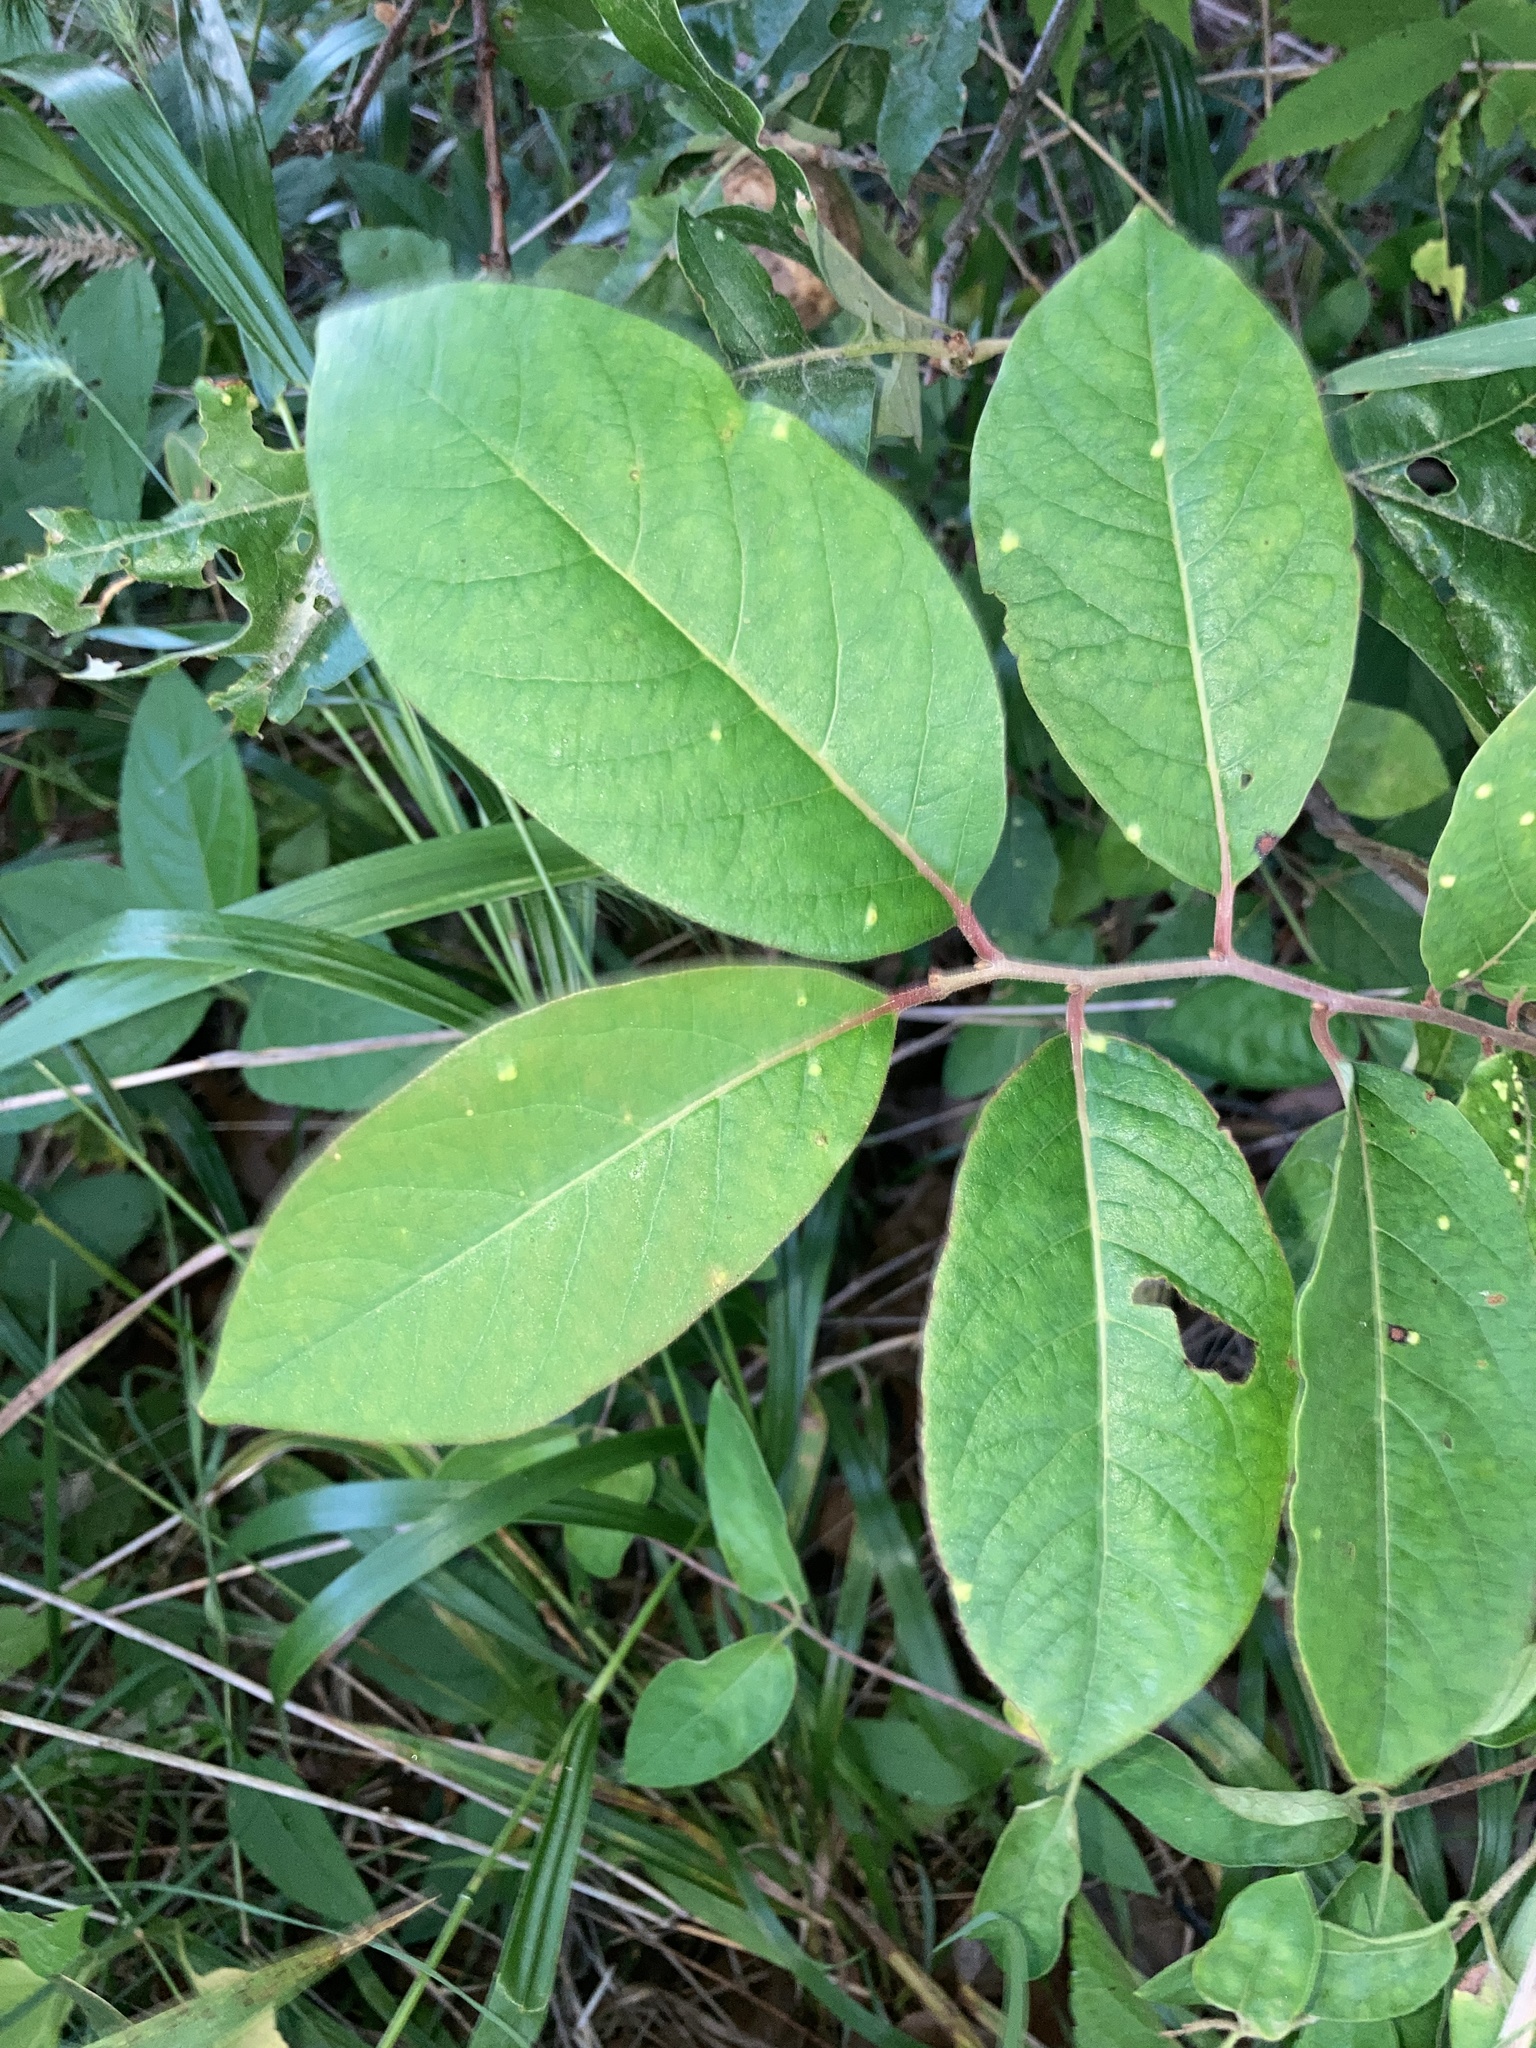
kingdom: Plantae
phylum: Tracheophyta
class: Magnoliopsida
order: Ericales
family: Ebenaceae
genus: Diospyros
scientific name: Diospyros virginiana
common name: Persimmon
